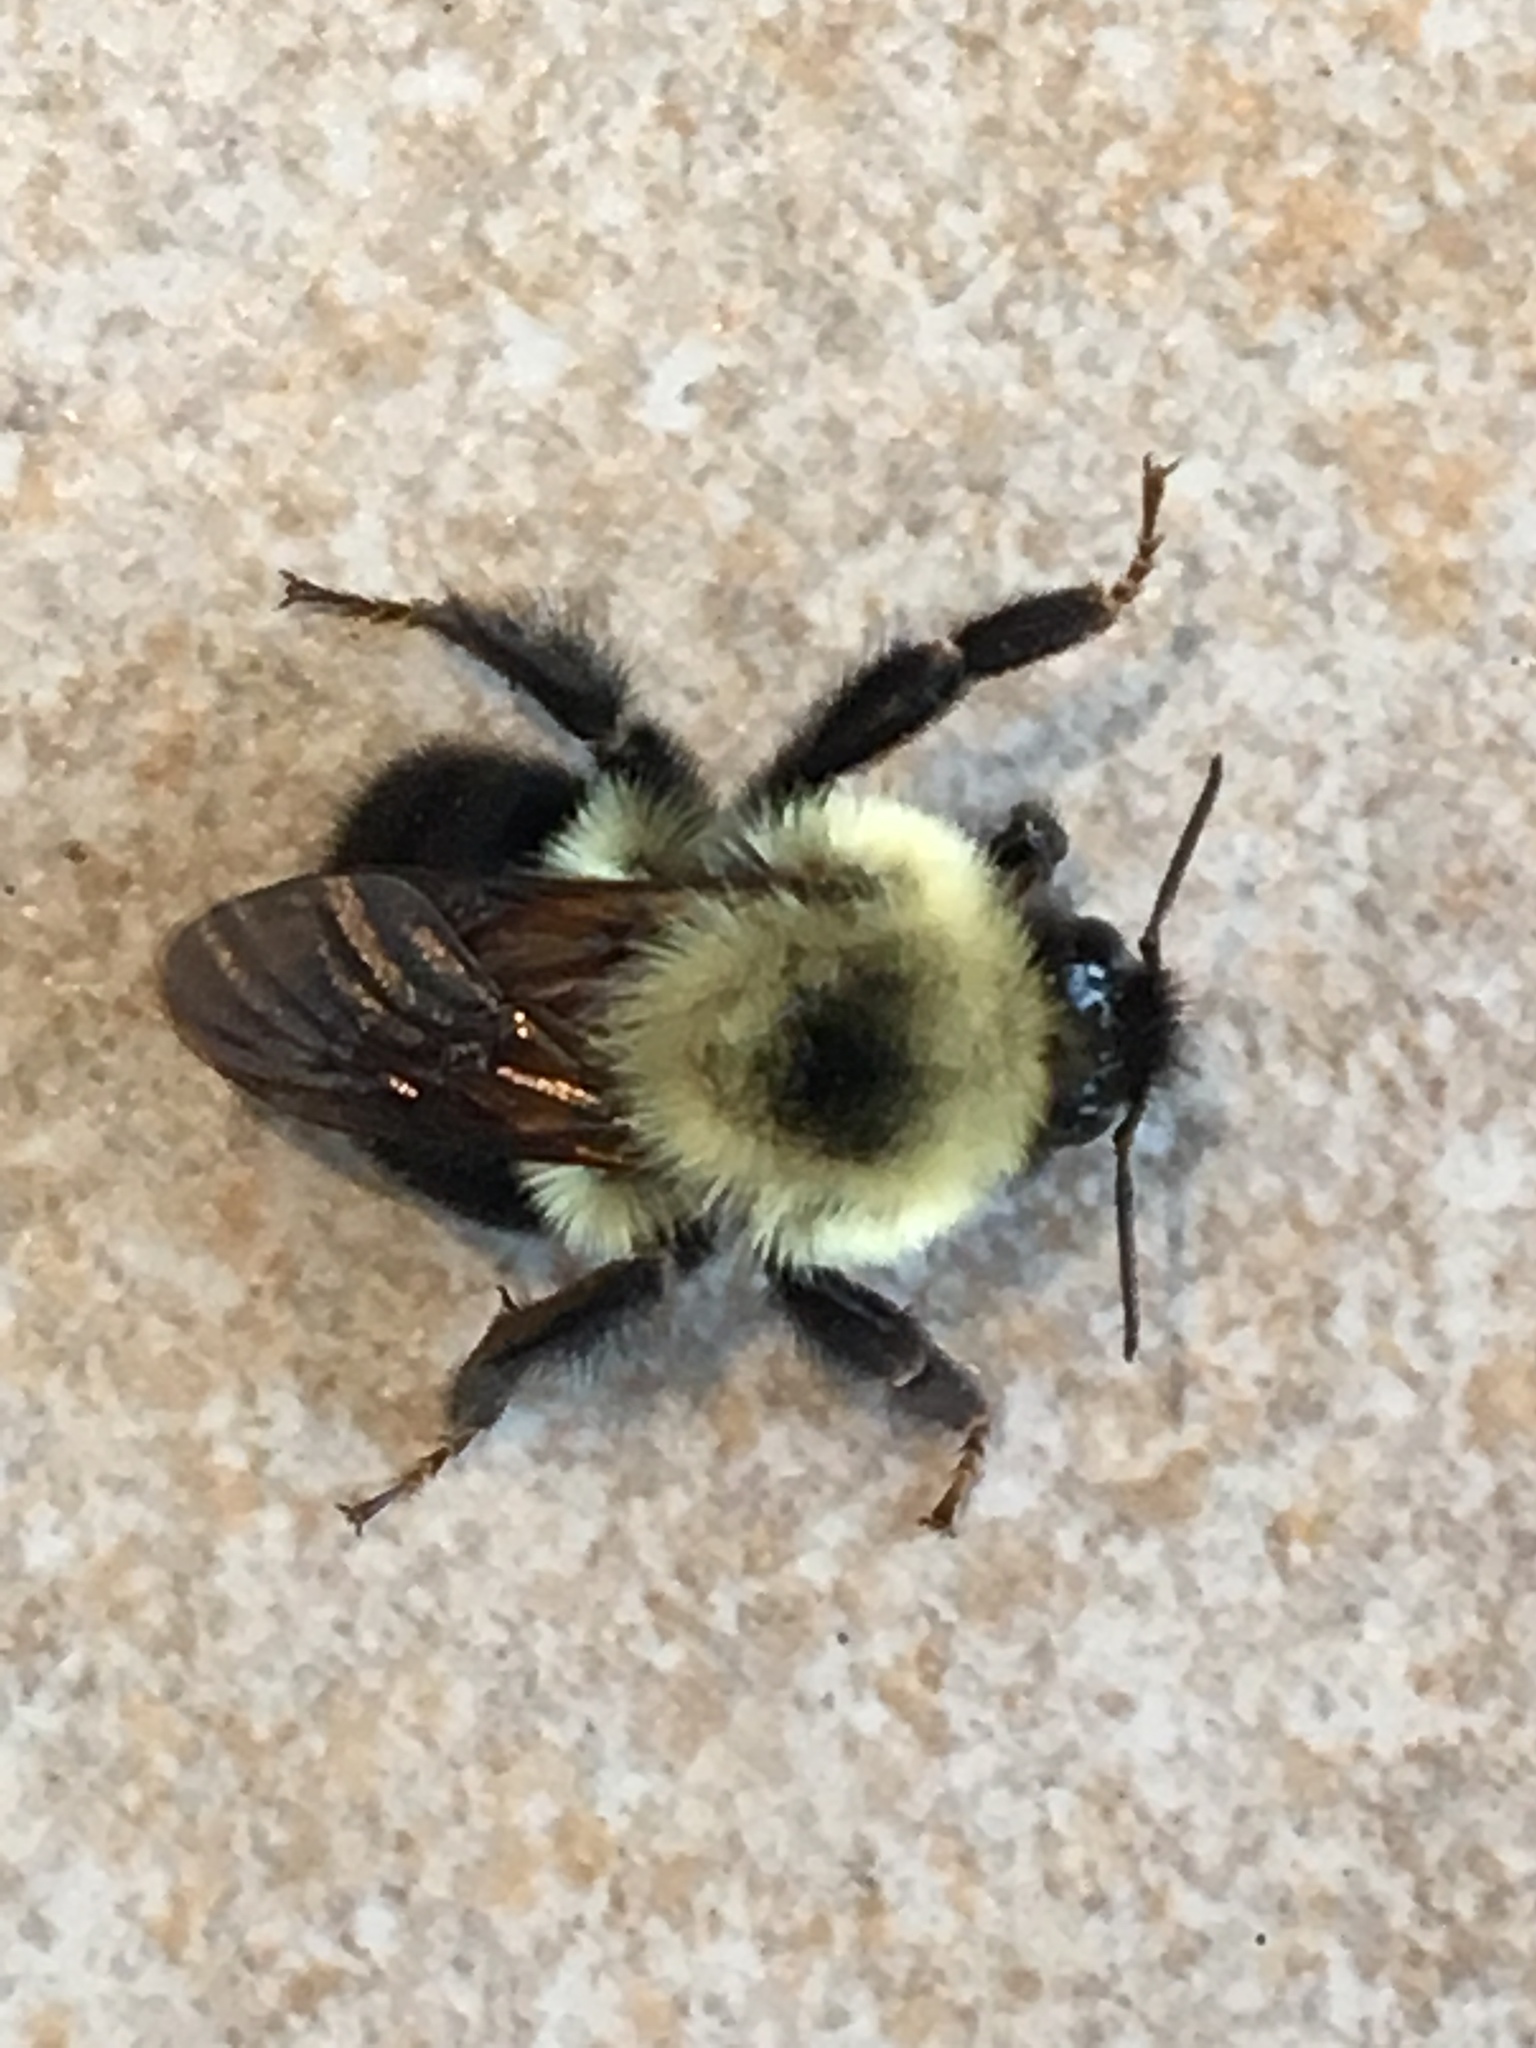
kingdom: Animalia
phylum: Arthropoda
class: Insecta
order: Hymenoptera
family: Apidae
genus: Bombus
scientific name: Bombus bimaculatus
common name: Two-spotted bumble bee
